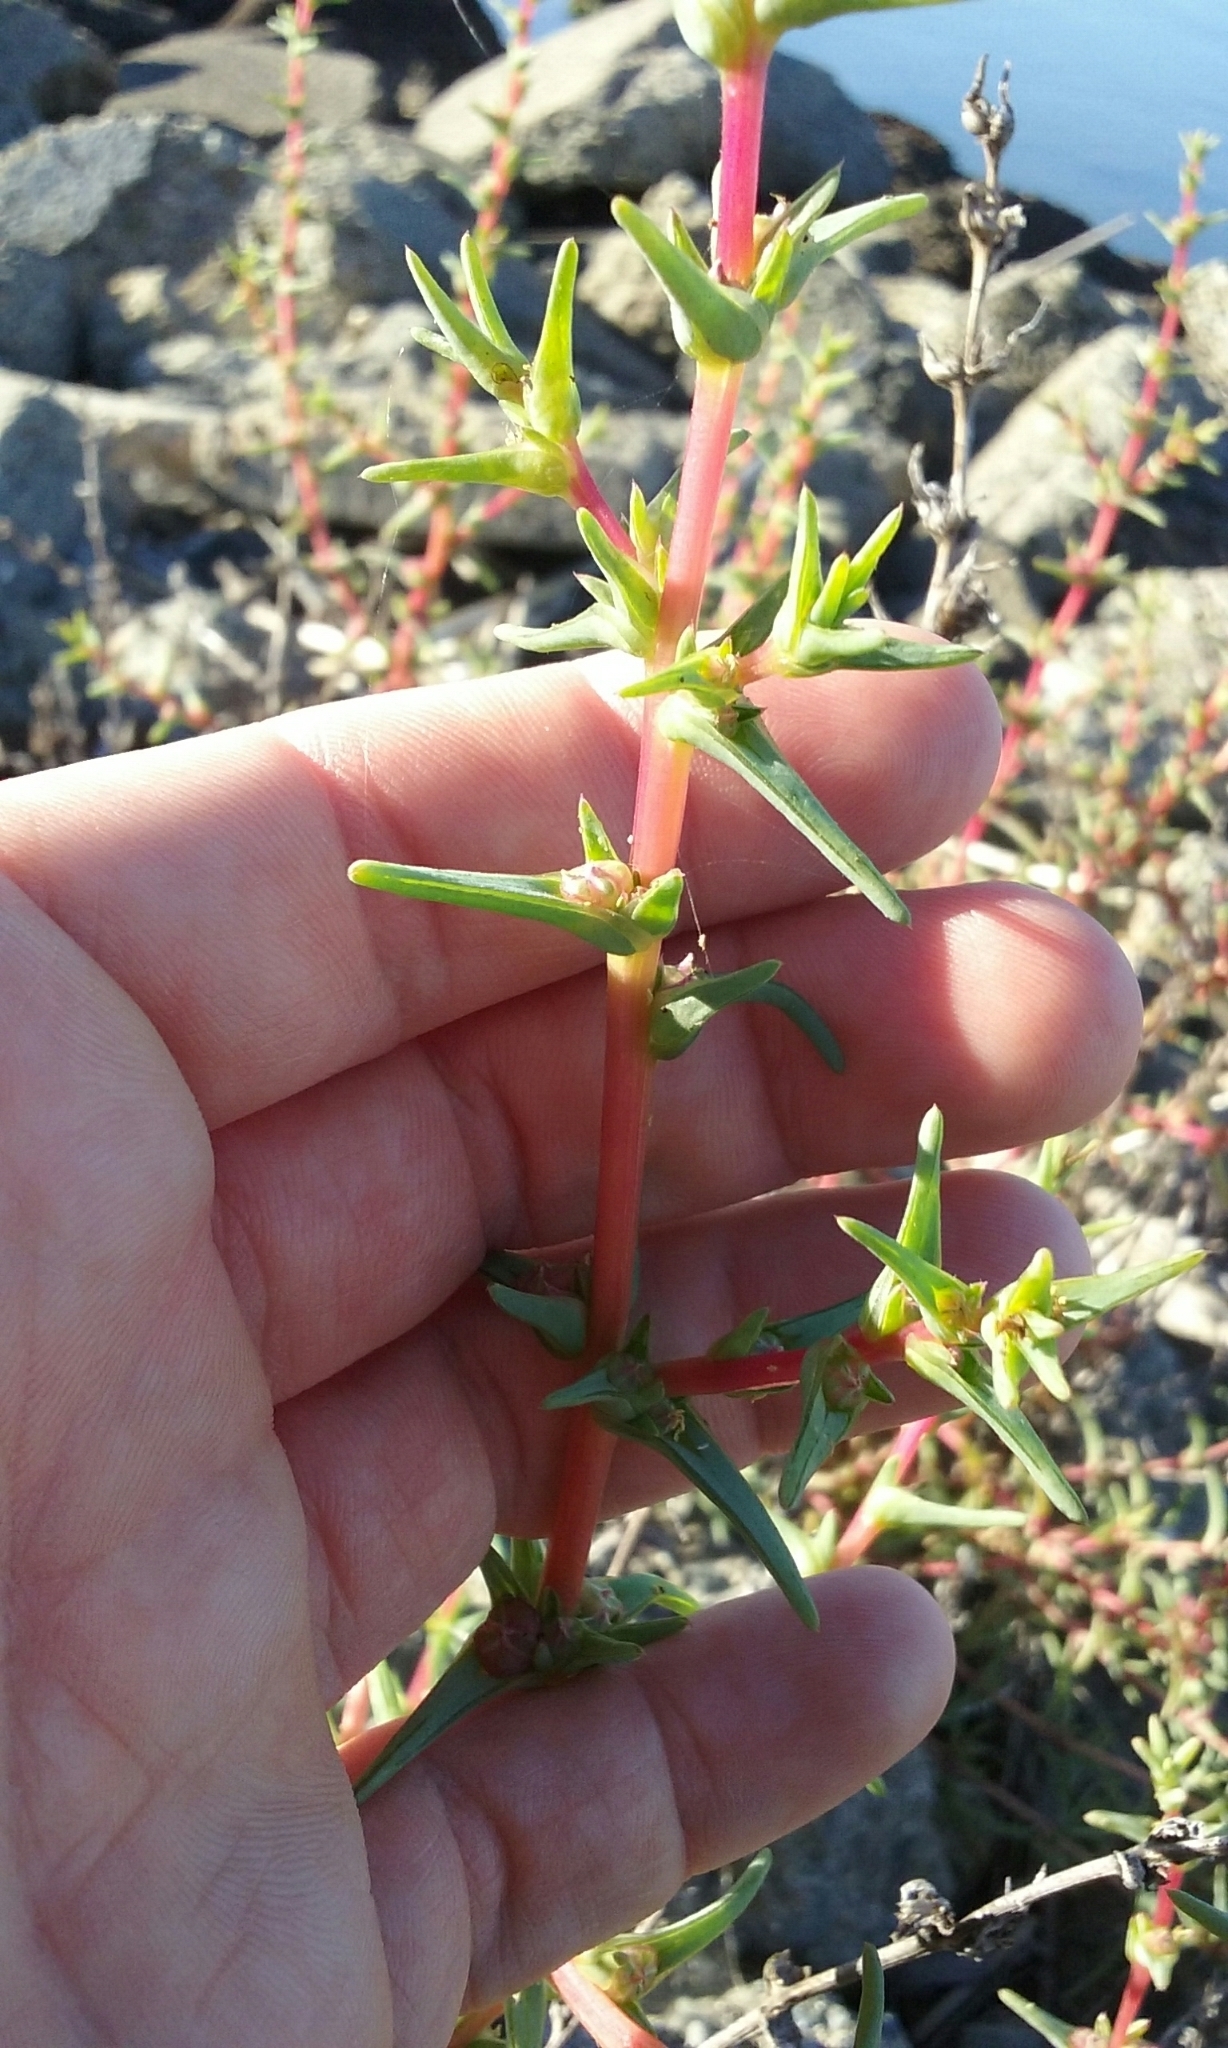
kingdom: Plantae
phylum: Tracheophyta
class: Magnoliopsida
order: Caryophyllales
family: Amaranthaceae
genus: Salsola
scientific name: Salsola soda
